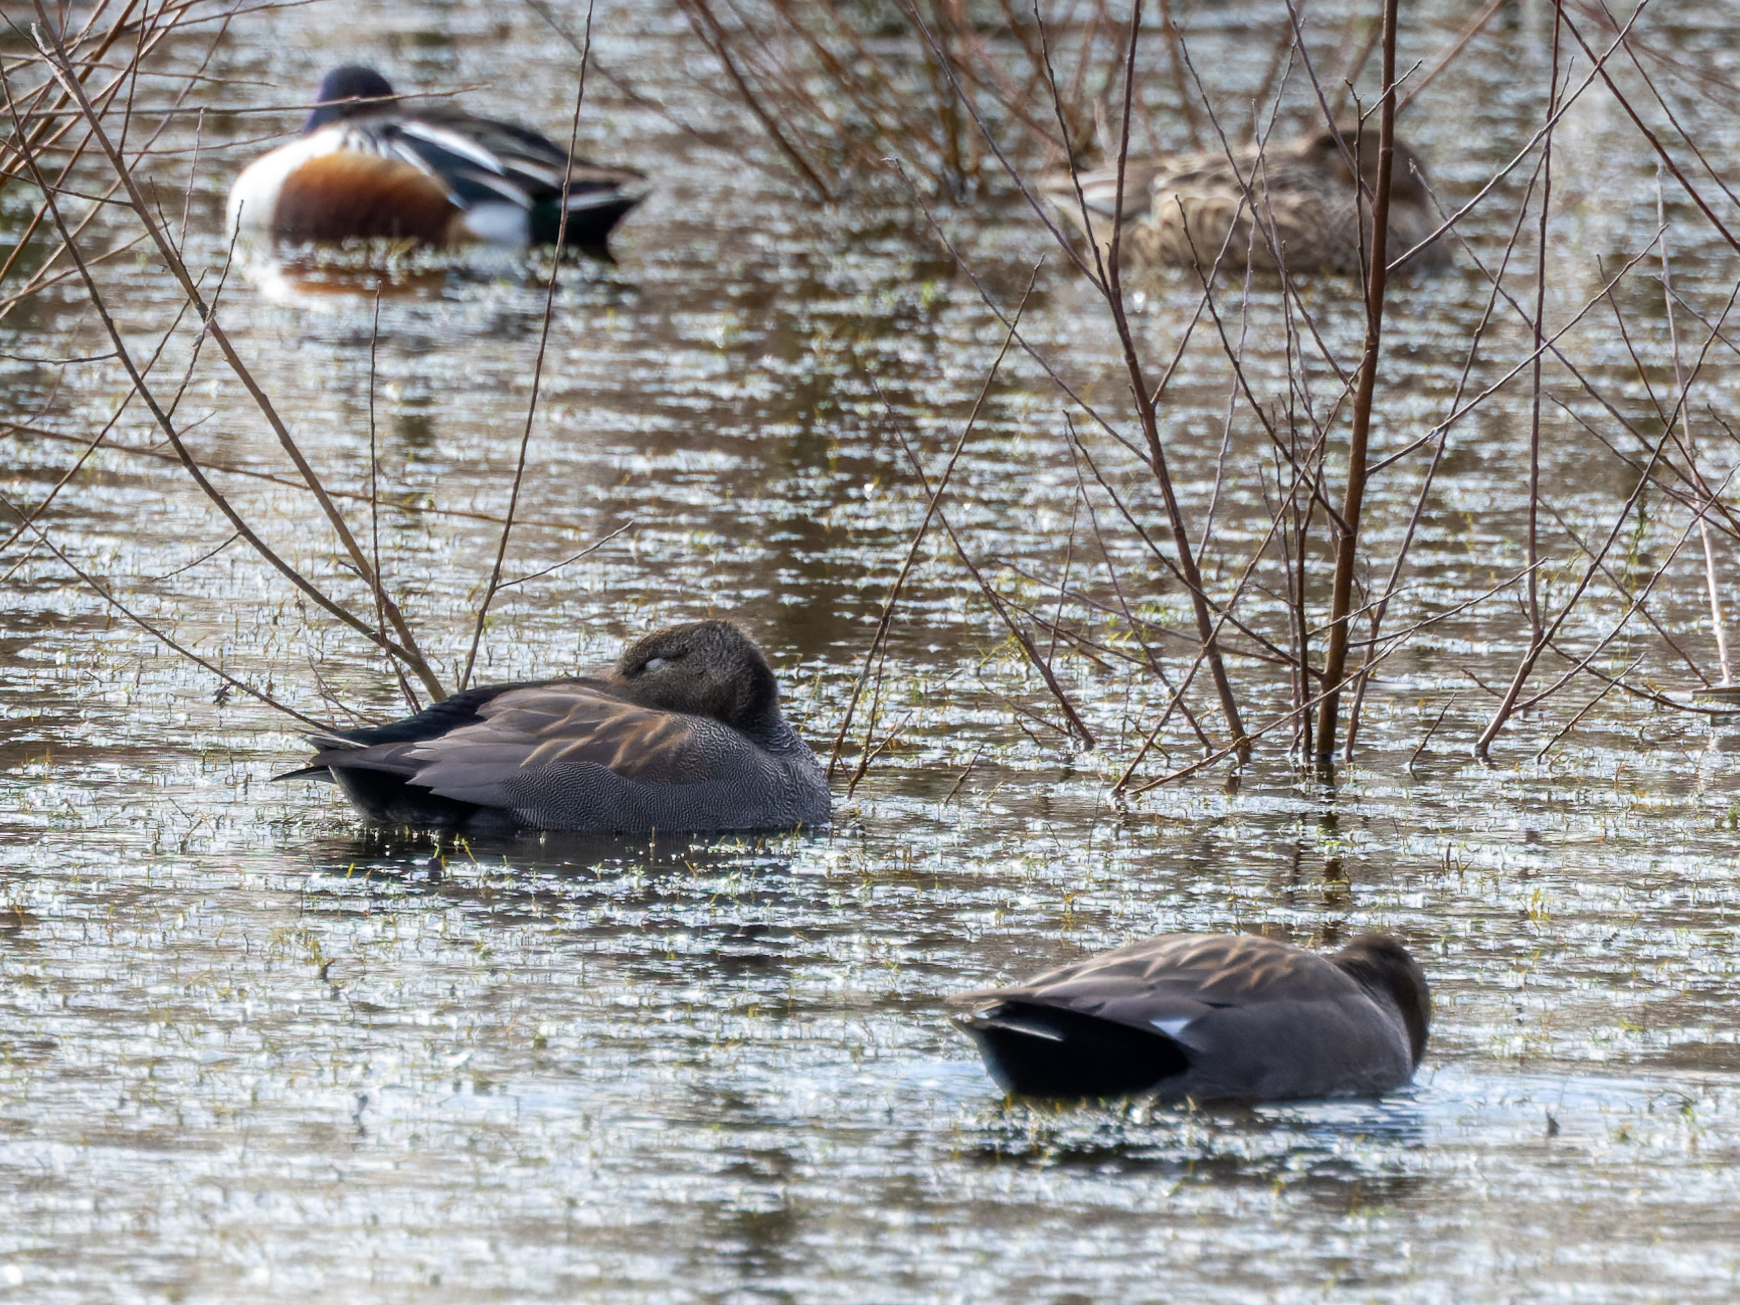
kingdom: Animalia
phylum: Chordata
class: Aves
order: Anseriformes
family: Anatidae
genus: Mareca
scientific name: Mareca strepera
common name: Gadwall
